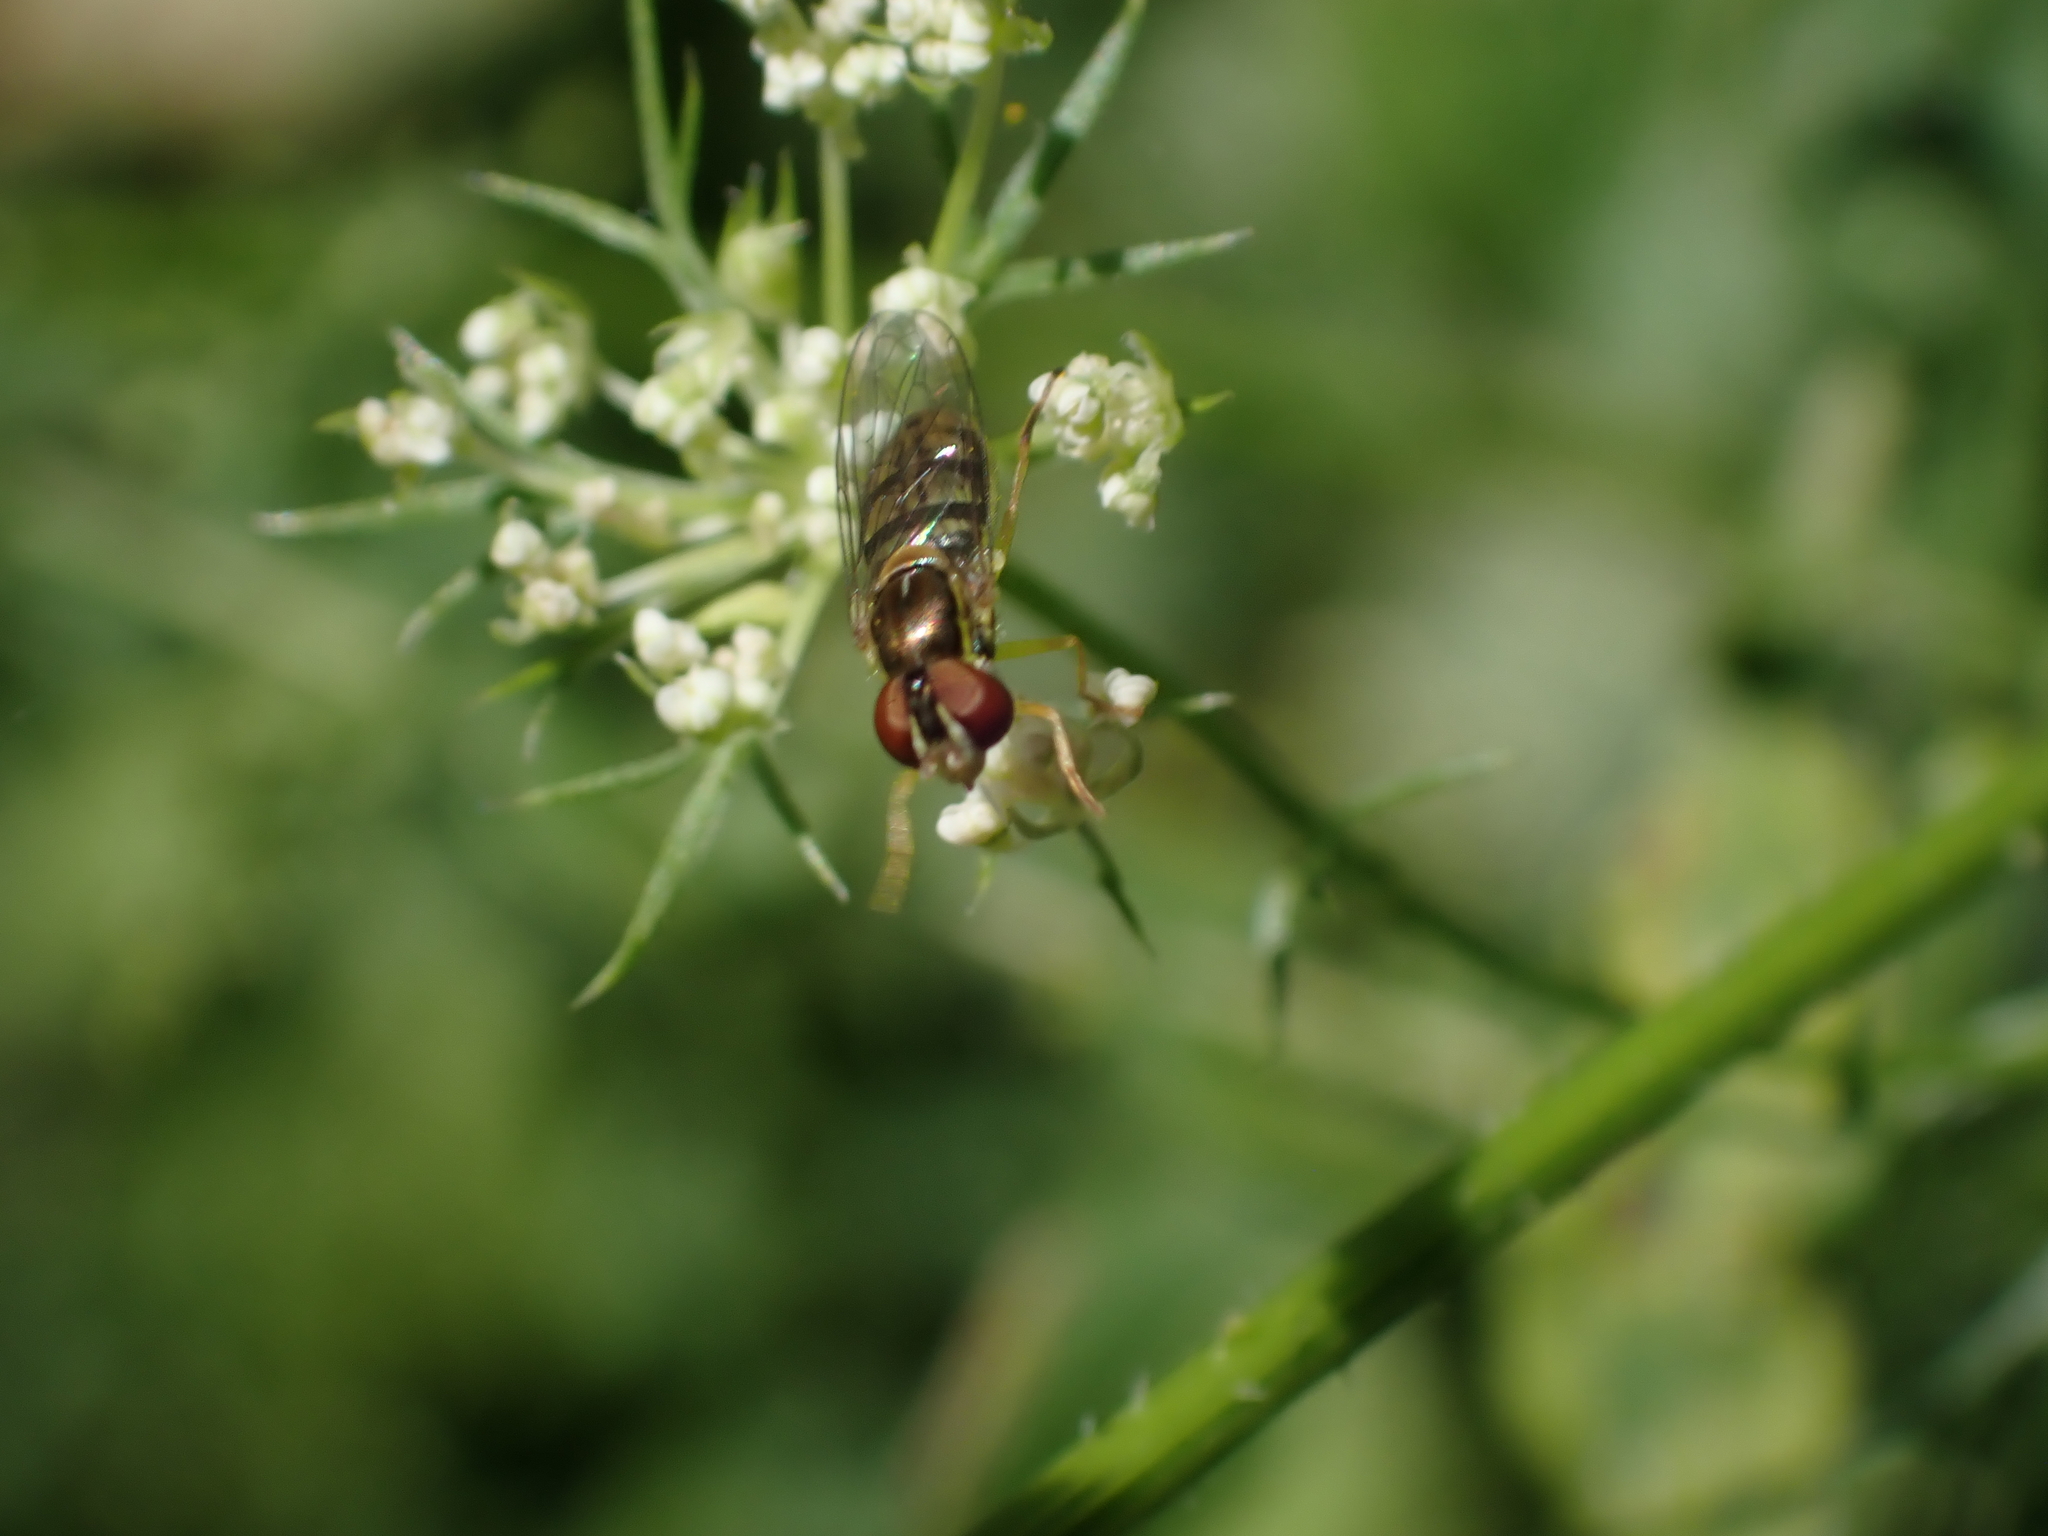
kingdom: Animalia
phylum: Arthropoda
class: Insecta
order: Diptera
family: Syrphidae
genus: Toxomerus
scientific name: Toxomerus marginatus
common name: Syrphid fly
